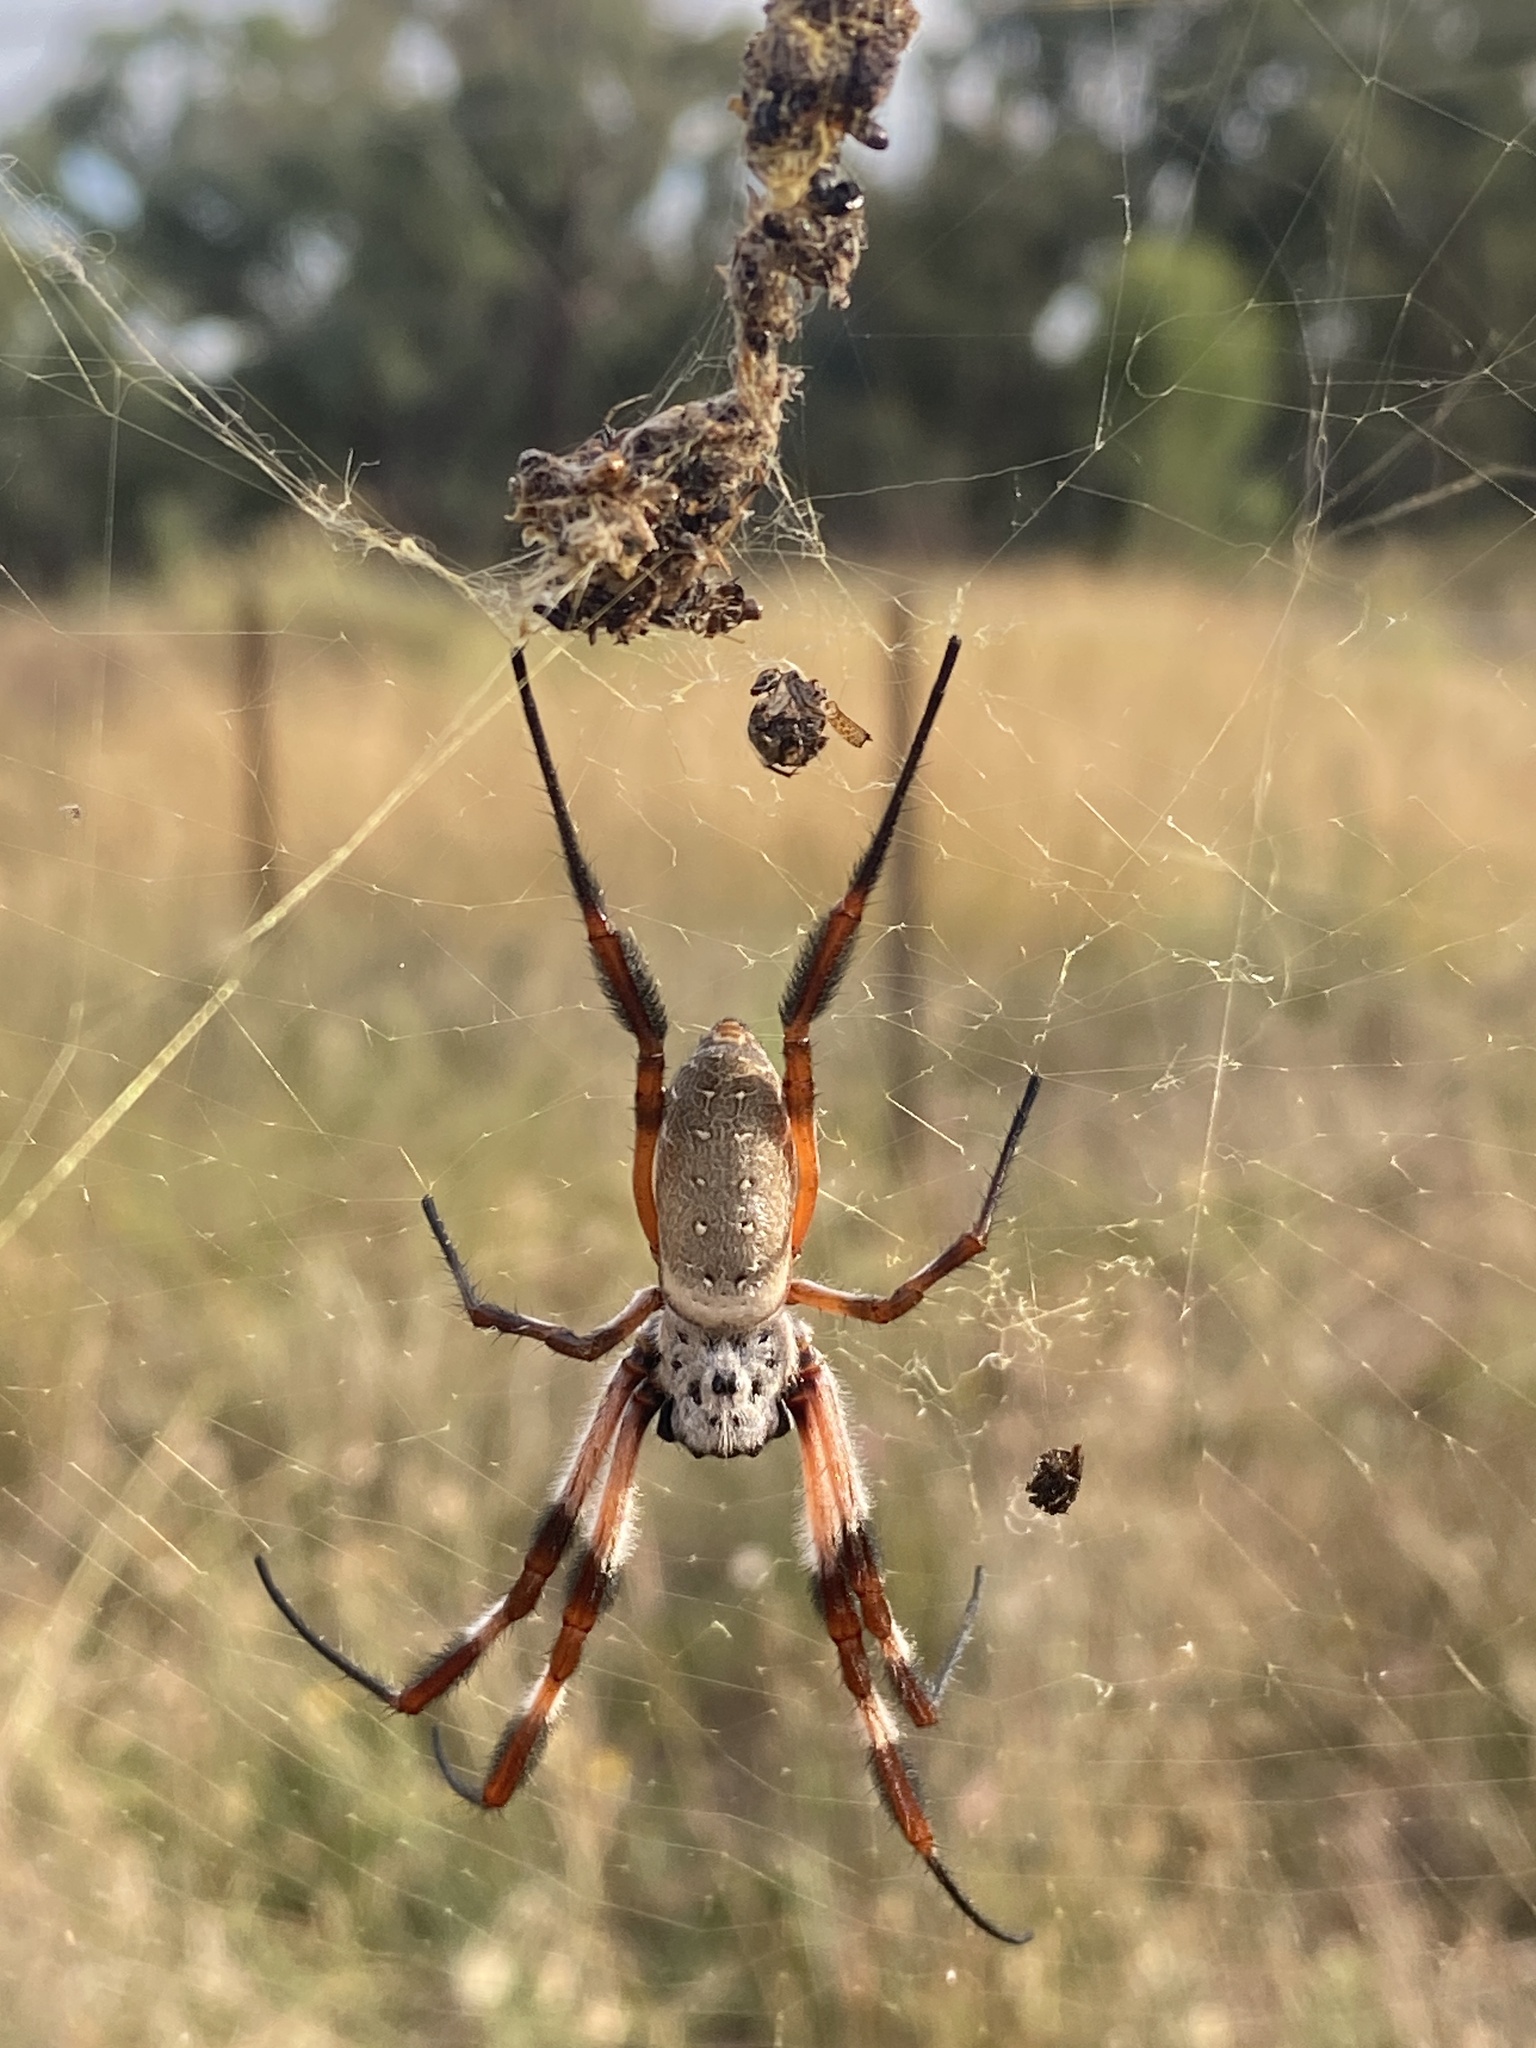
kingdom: Animalia
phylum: Arthropoda
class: Arachnida
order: Araneae
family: Araneidae
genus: Trichonephila
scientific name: Trichonephila edulis
